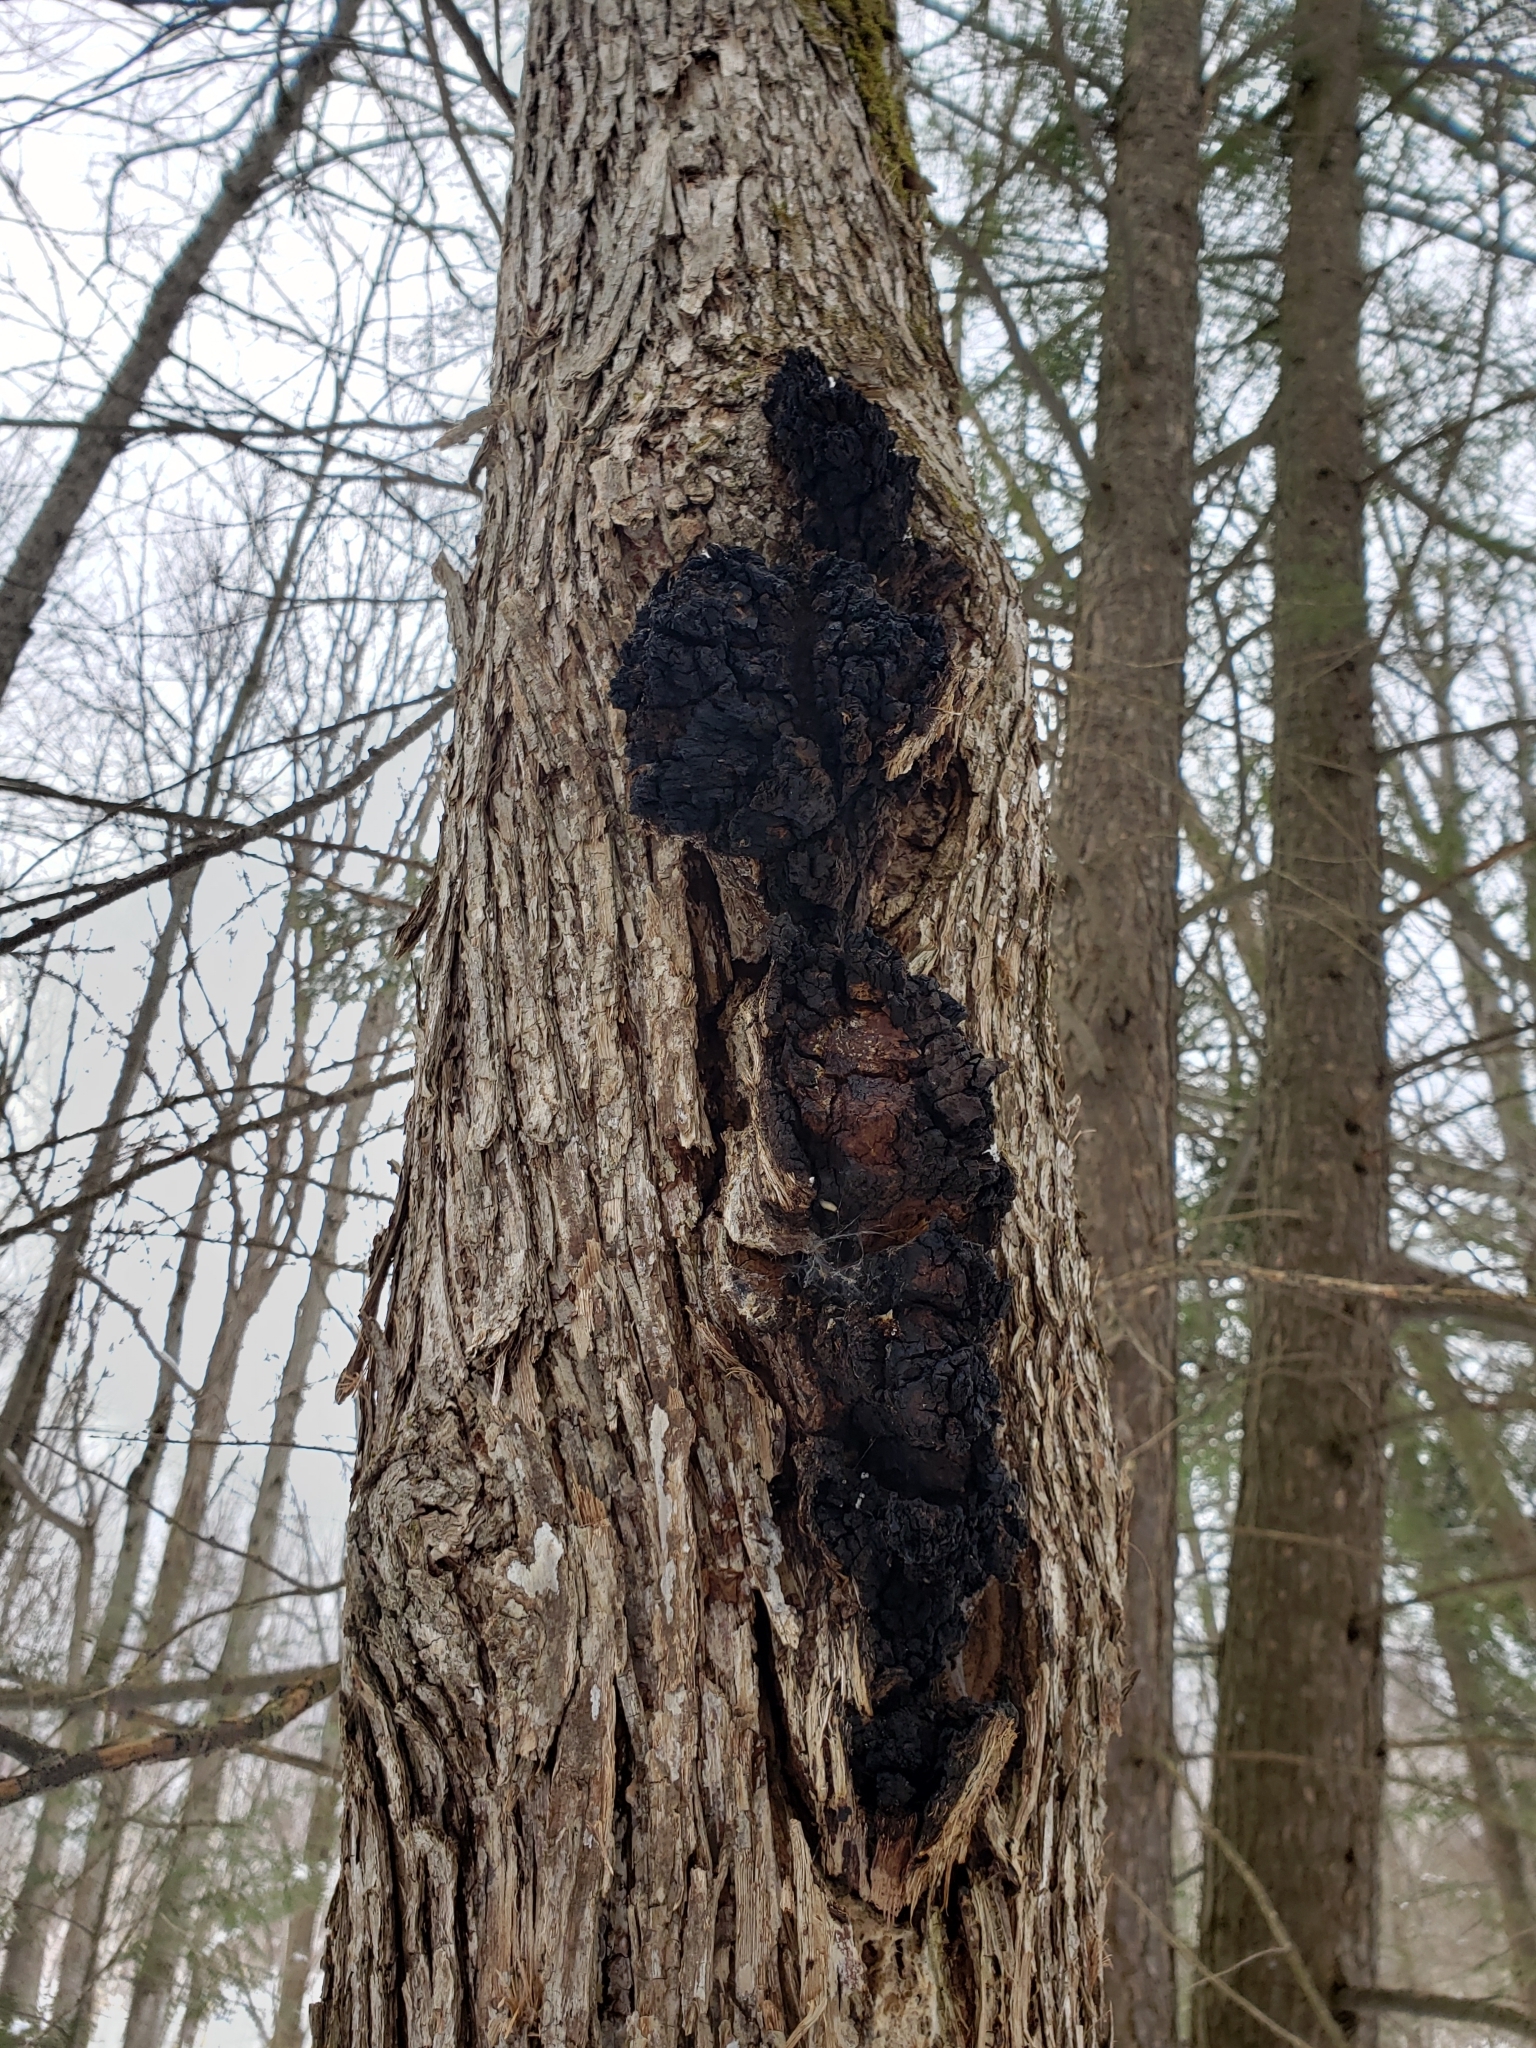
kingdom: Fungi
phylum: Basidiomycota
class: Agaricomycetes
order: Hymenochaetales
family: Hymenochaetaceae
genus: Inonotus
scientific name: Inonotus obliquus
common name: Chaga
